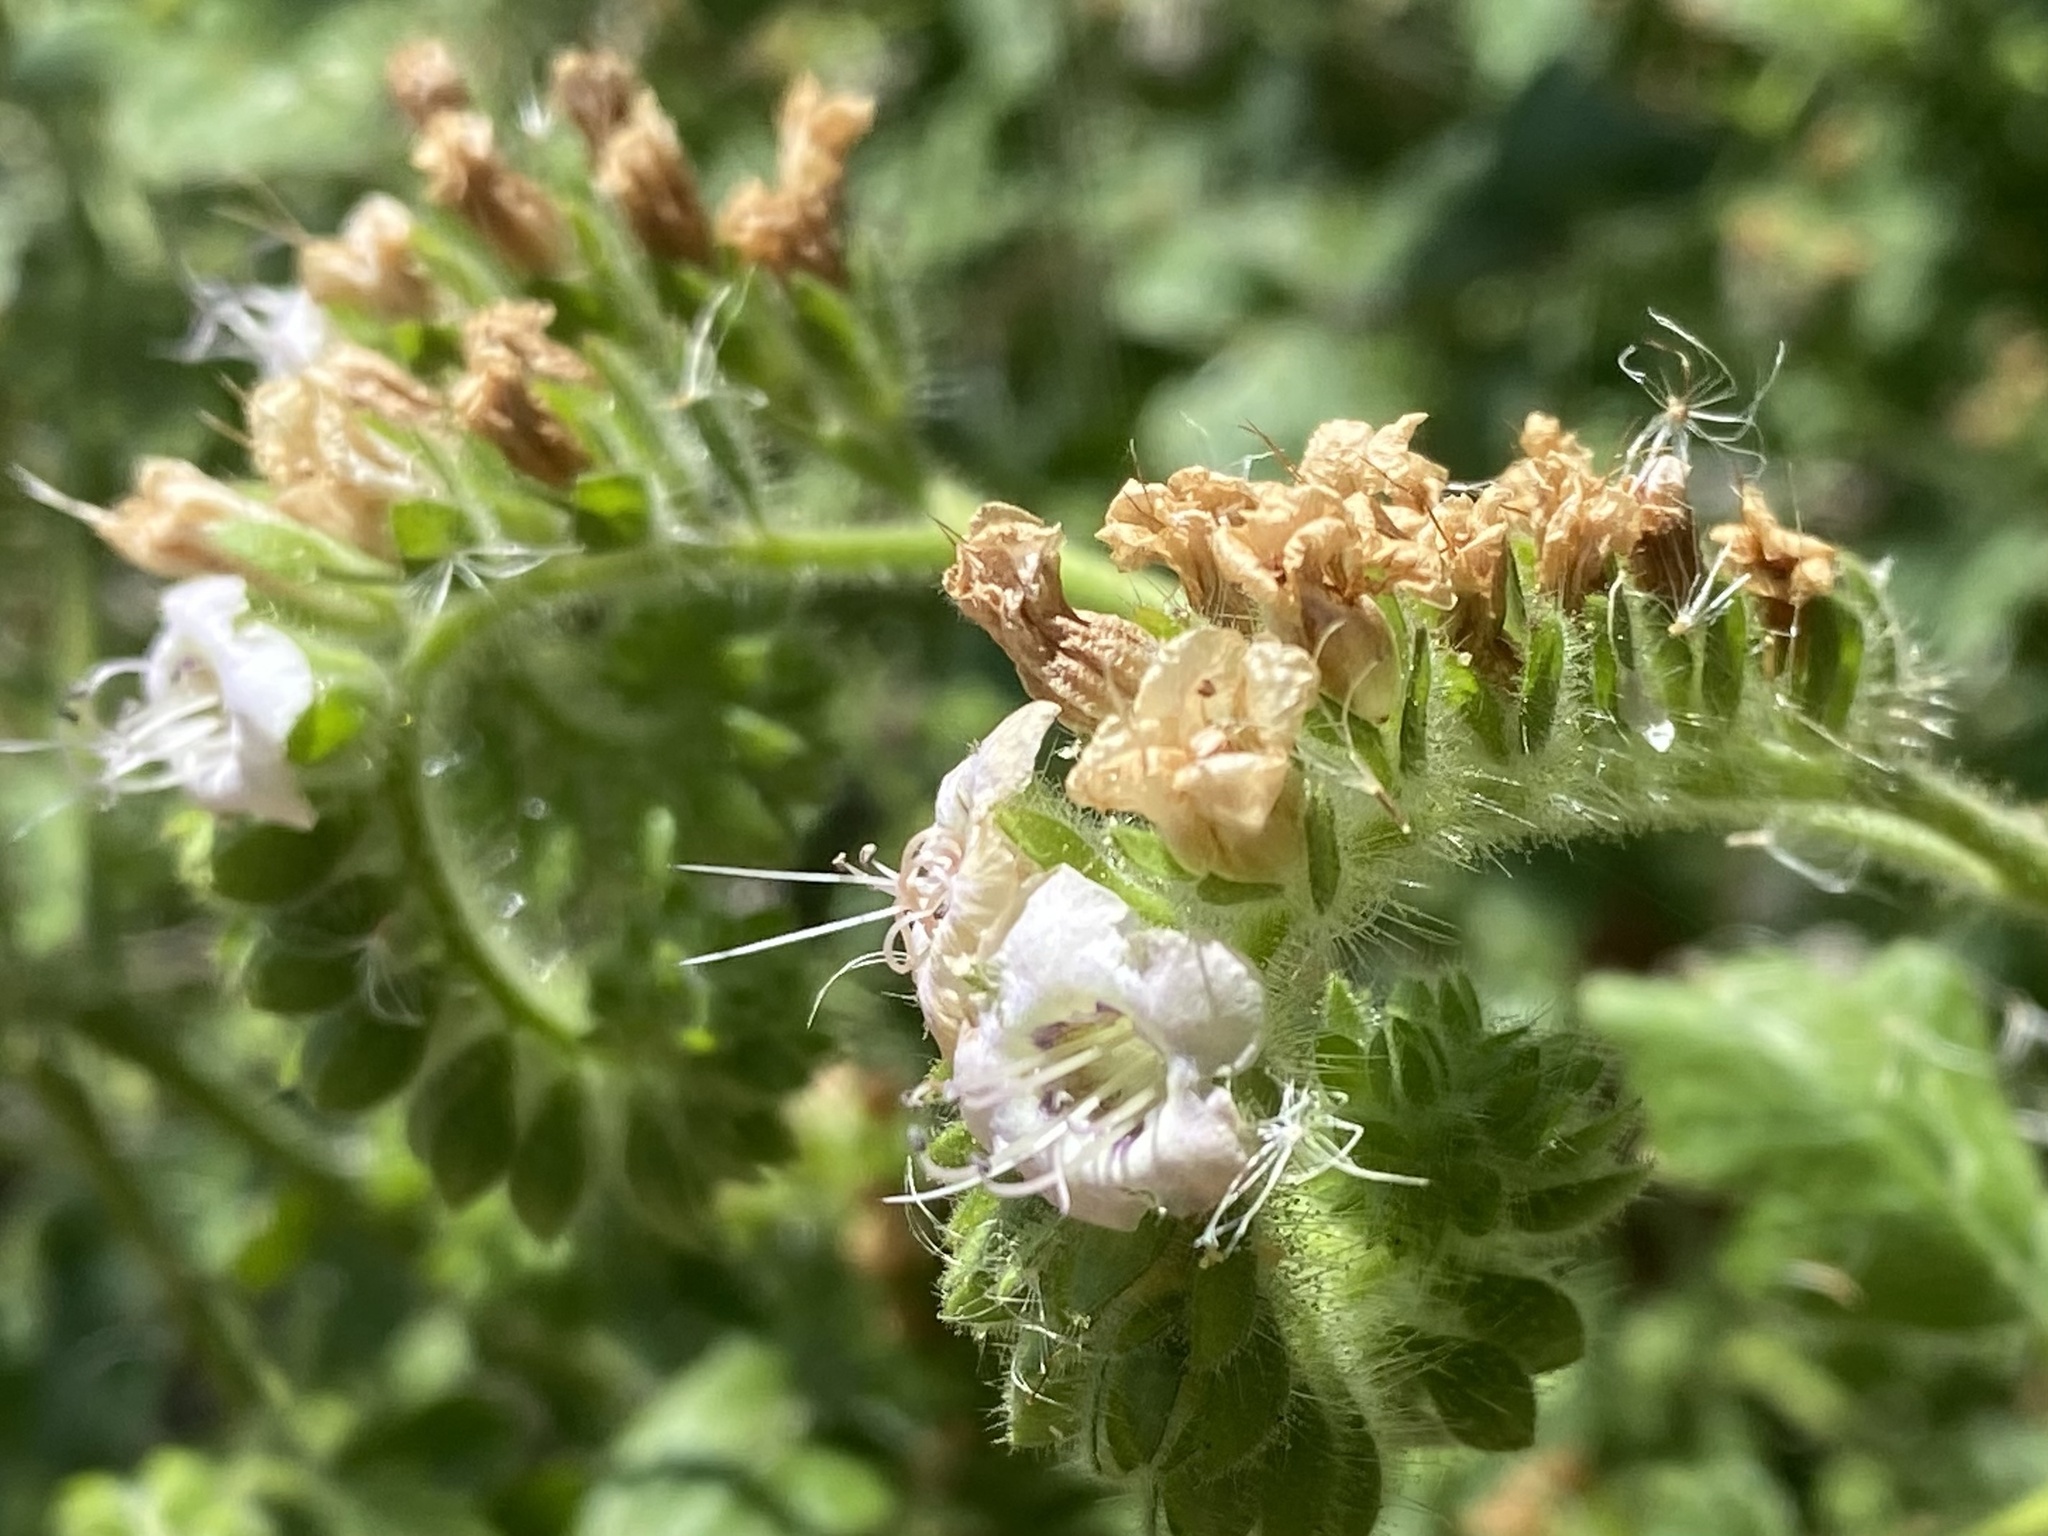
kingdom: Plantae
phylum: Tracheophyta
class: Magnoliopsida
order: Boraginales
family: Hydrophyllaceae
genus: Phacelia
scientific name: Phacelia ramosissima
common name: Branching phacelia
